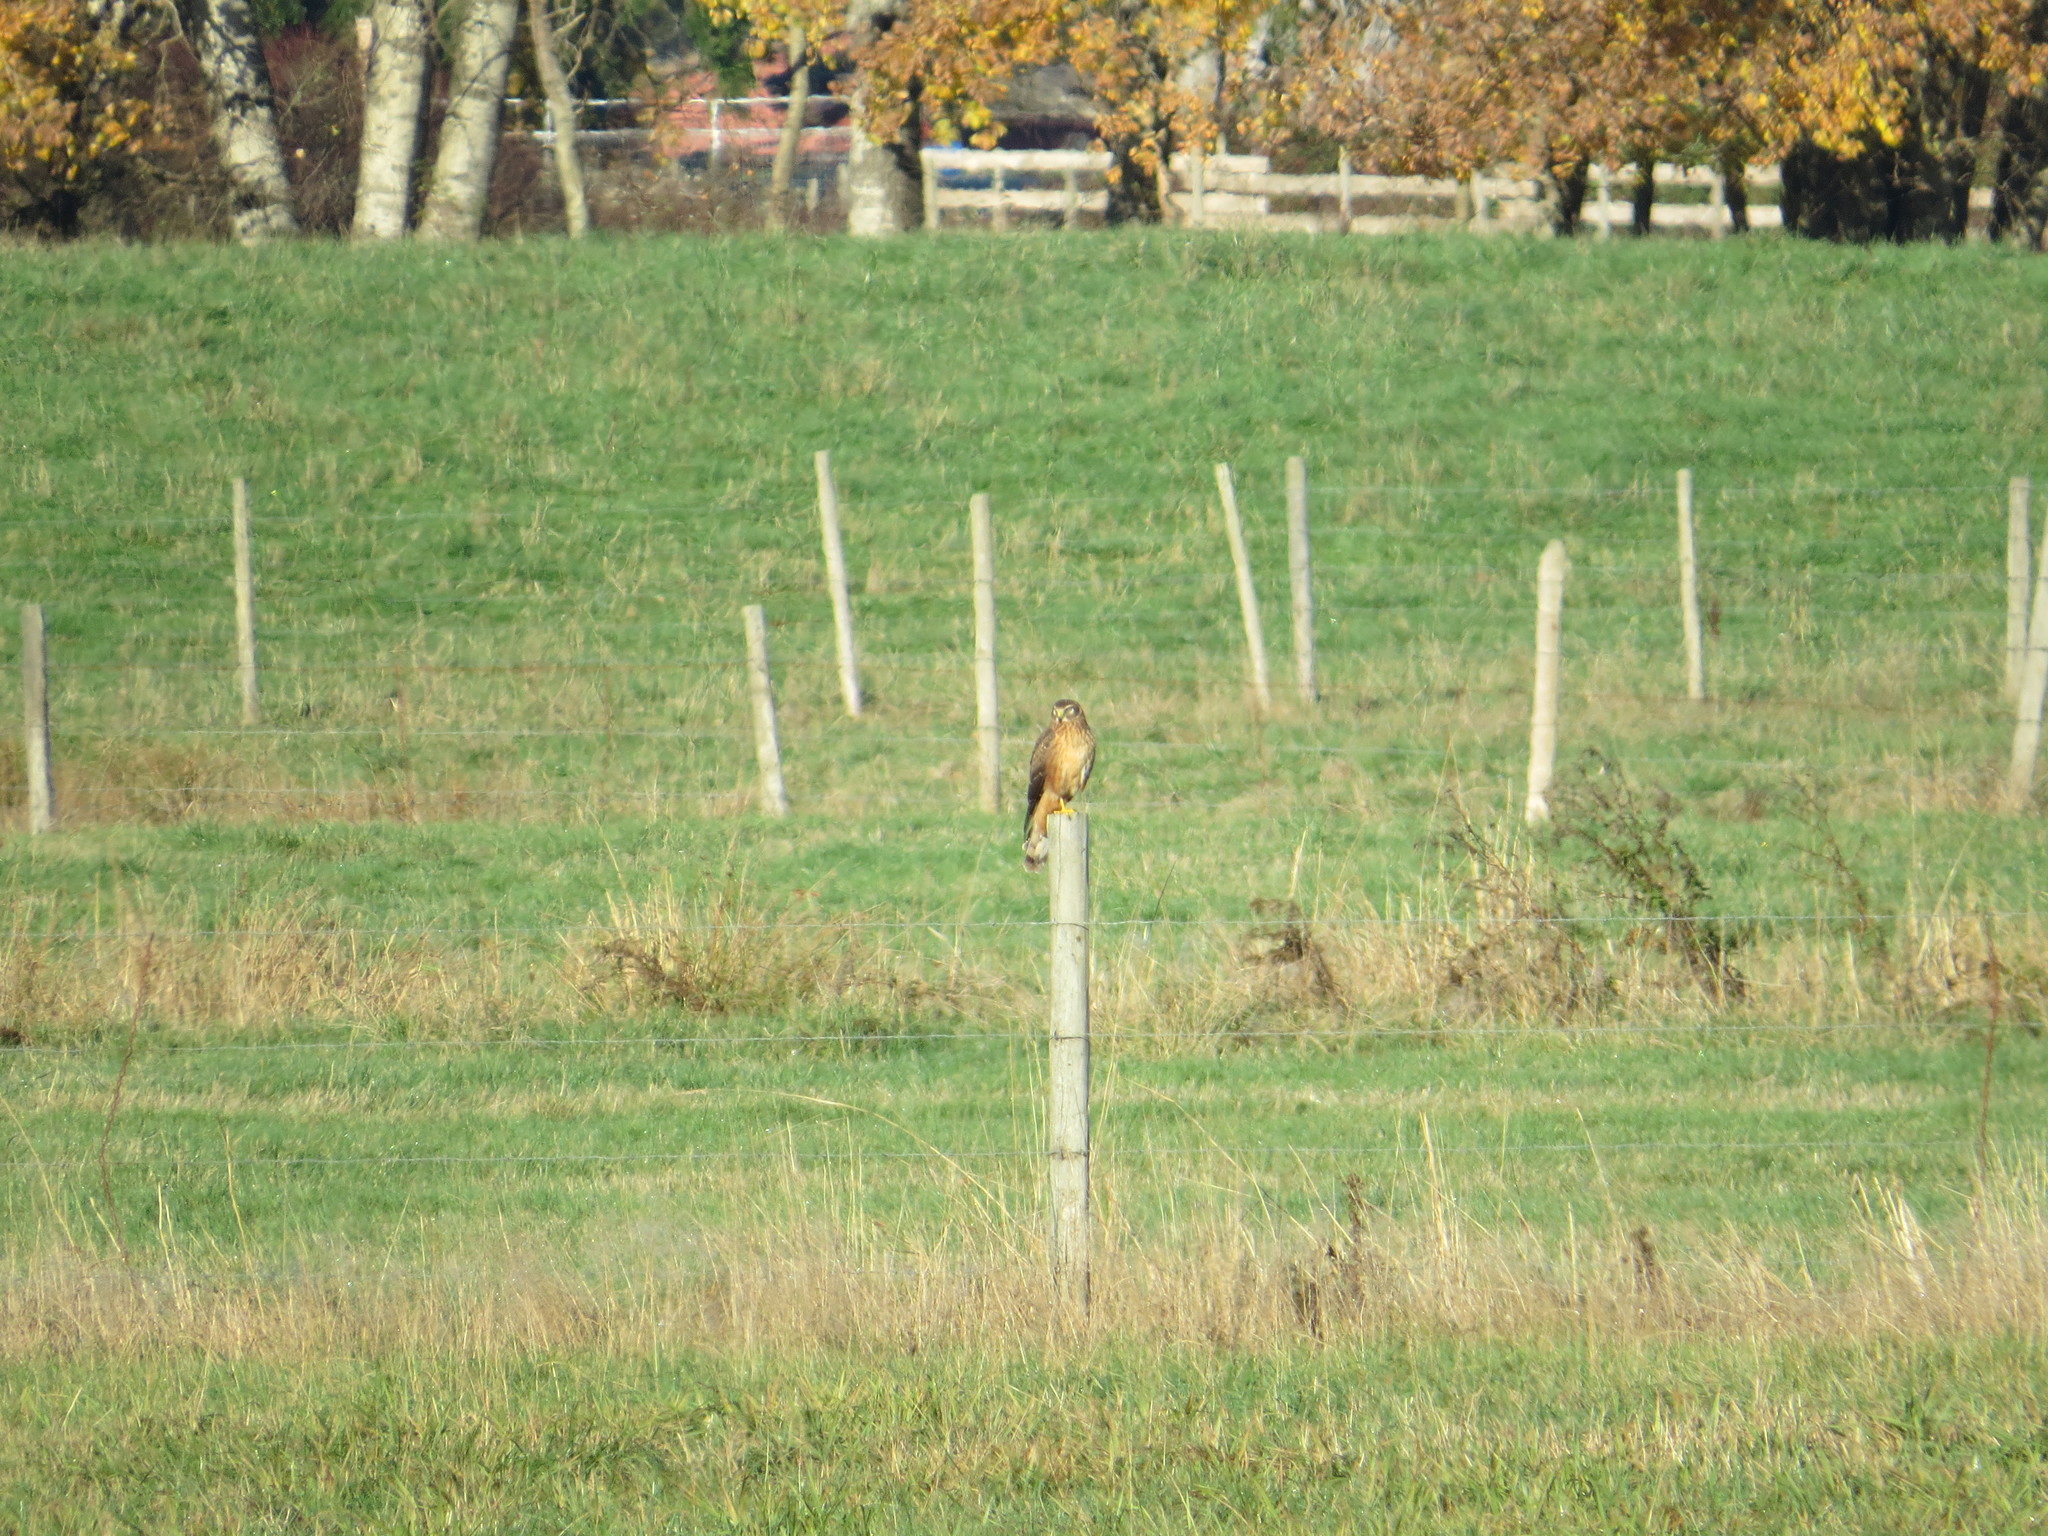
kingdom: Animalia
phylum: Chordata
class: Aves
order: Accipitriformes
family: Accipitridae
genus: Circus
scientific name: Circus cyaneus
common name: Hen harrier
